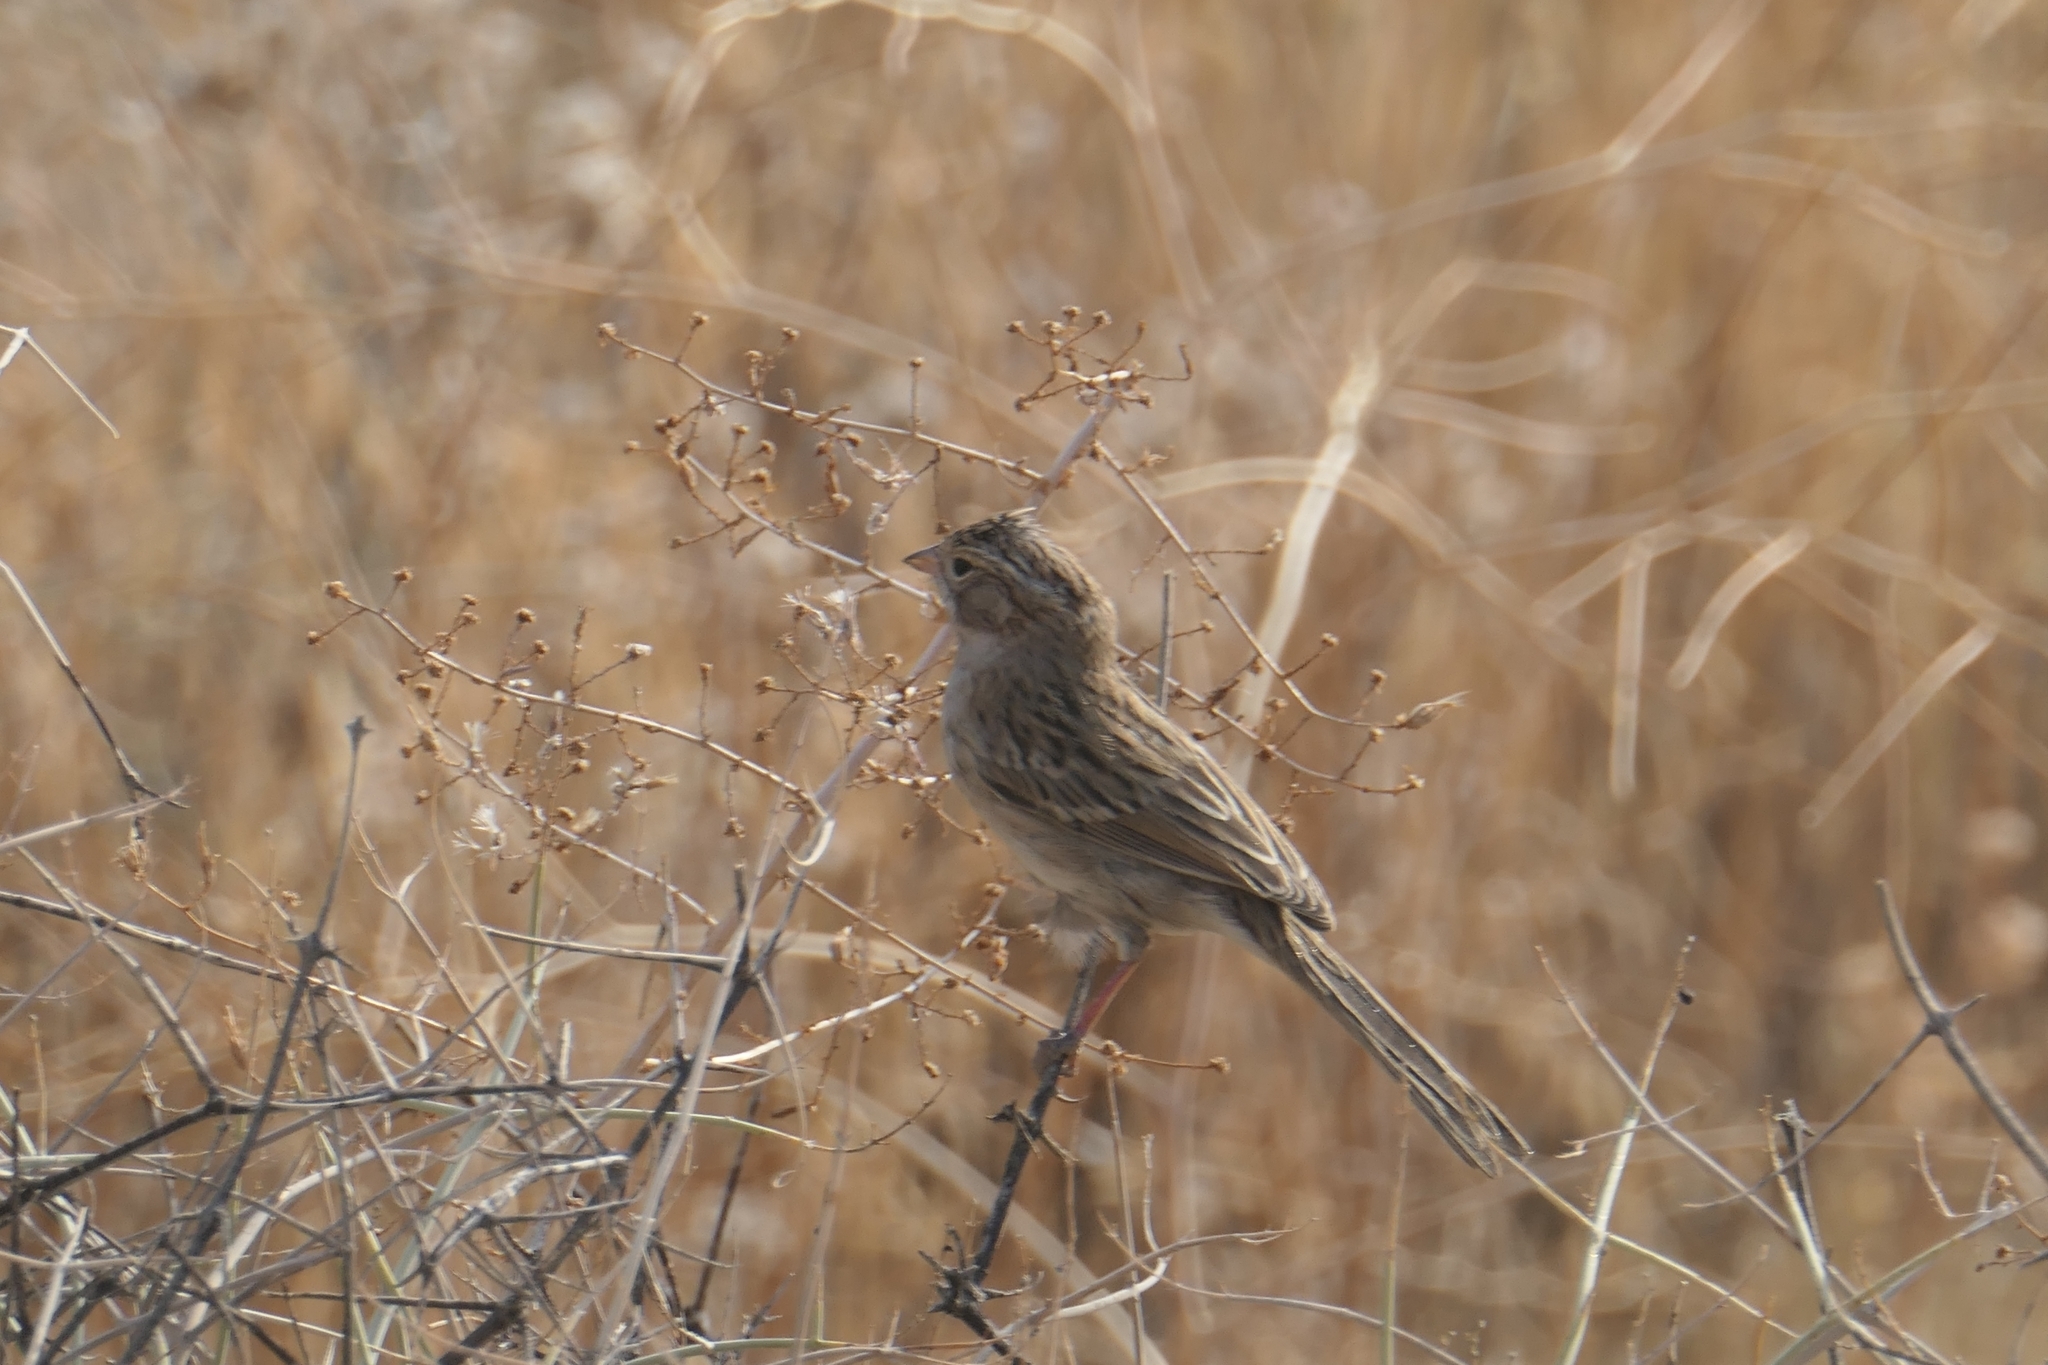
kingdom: Animalia
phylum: Chordata
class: Aves
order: Passeriformes
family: Passerellidae
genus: Spizella
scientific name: Spizella breweri
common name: Brewer's sparrow
